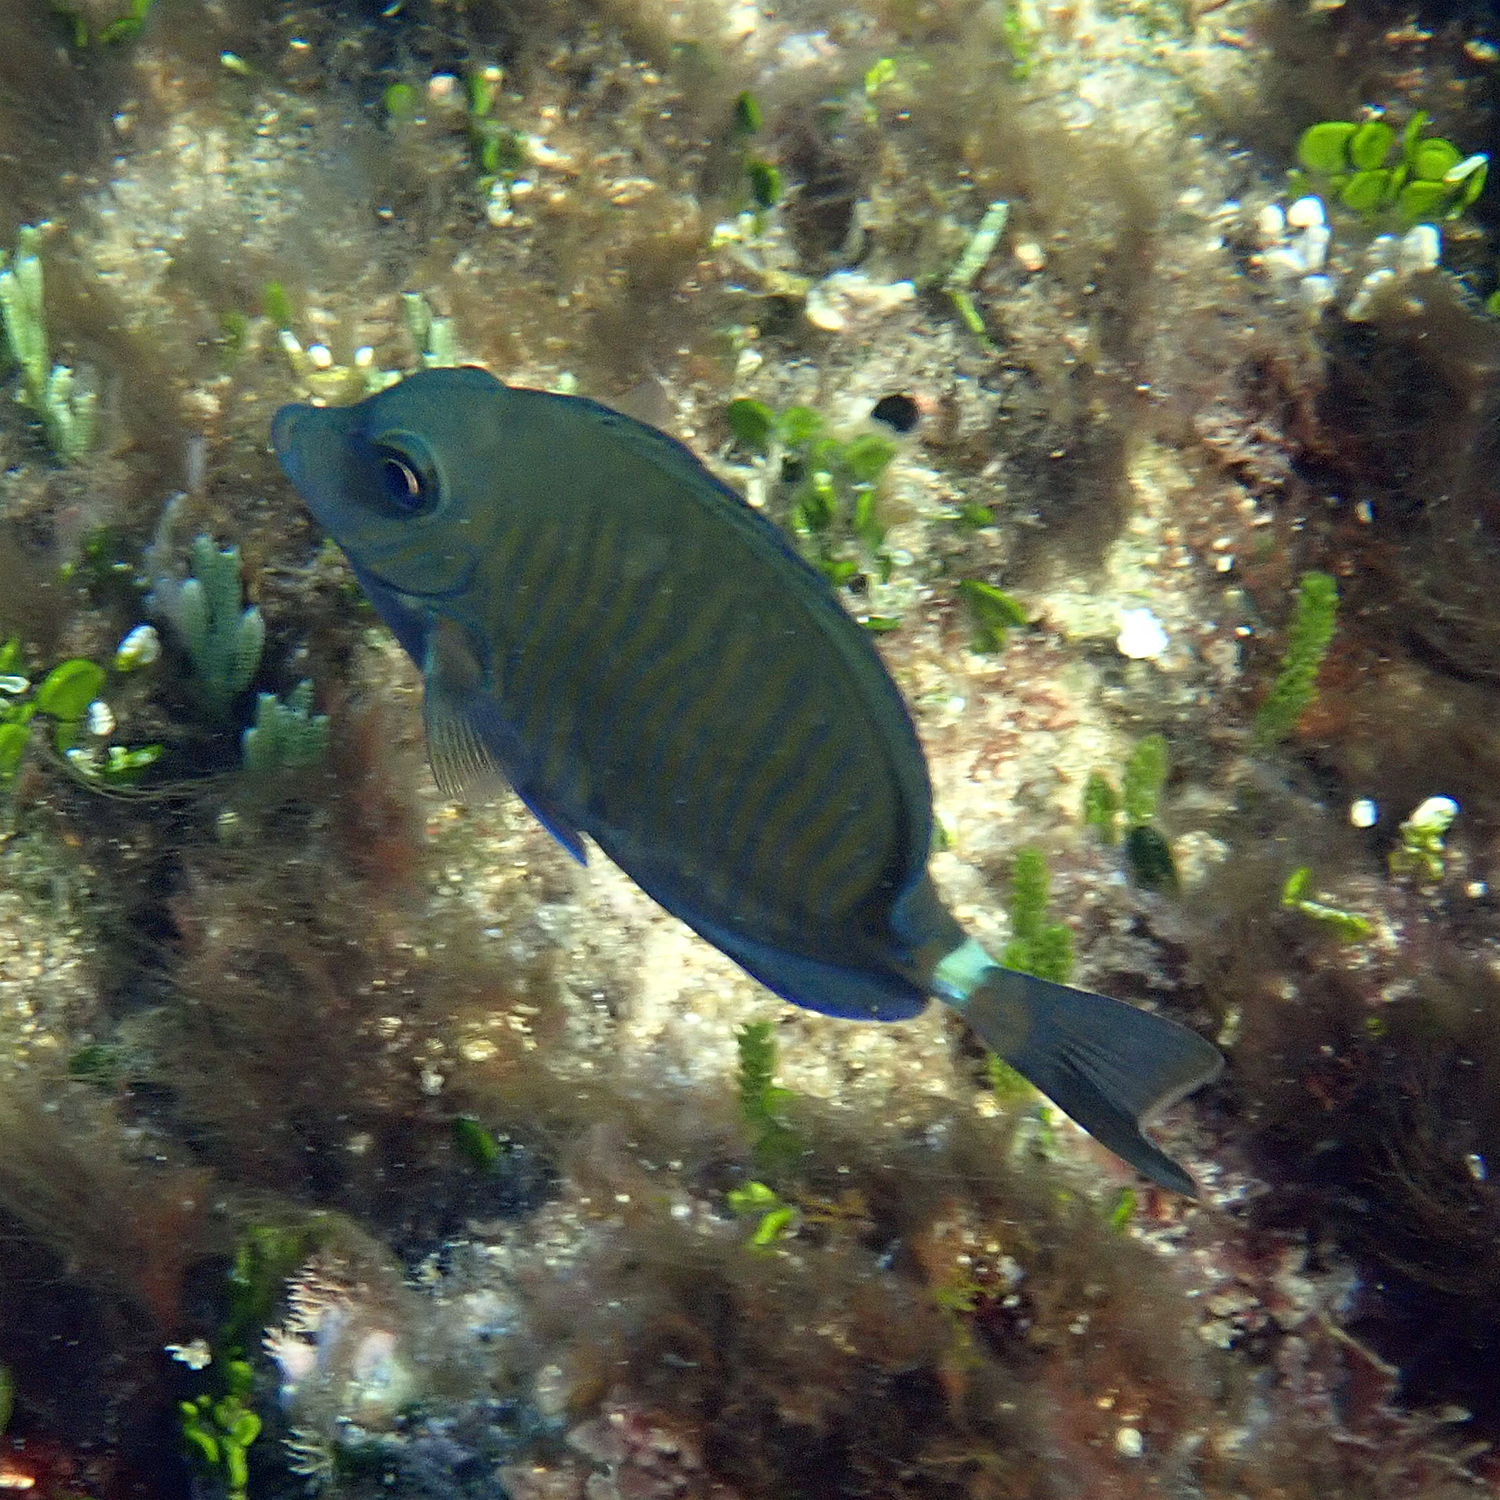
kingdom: Animalia
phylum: Chordata
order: Perciformes
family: Acanthuridae
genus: Prionurus
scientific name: Prionurus maculatus
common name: Yellowspotted sawtail
